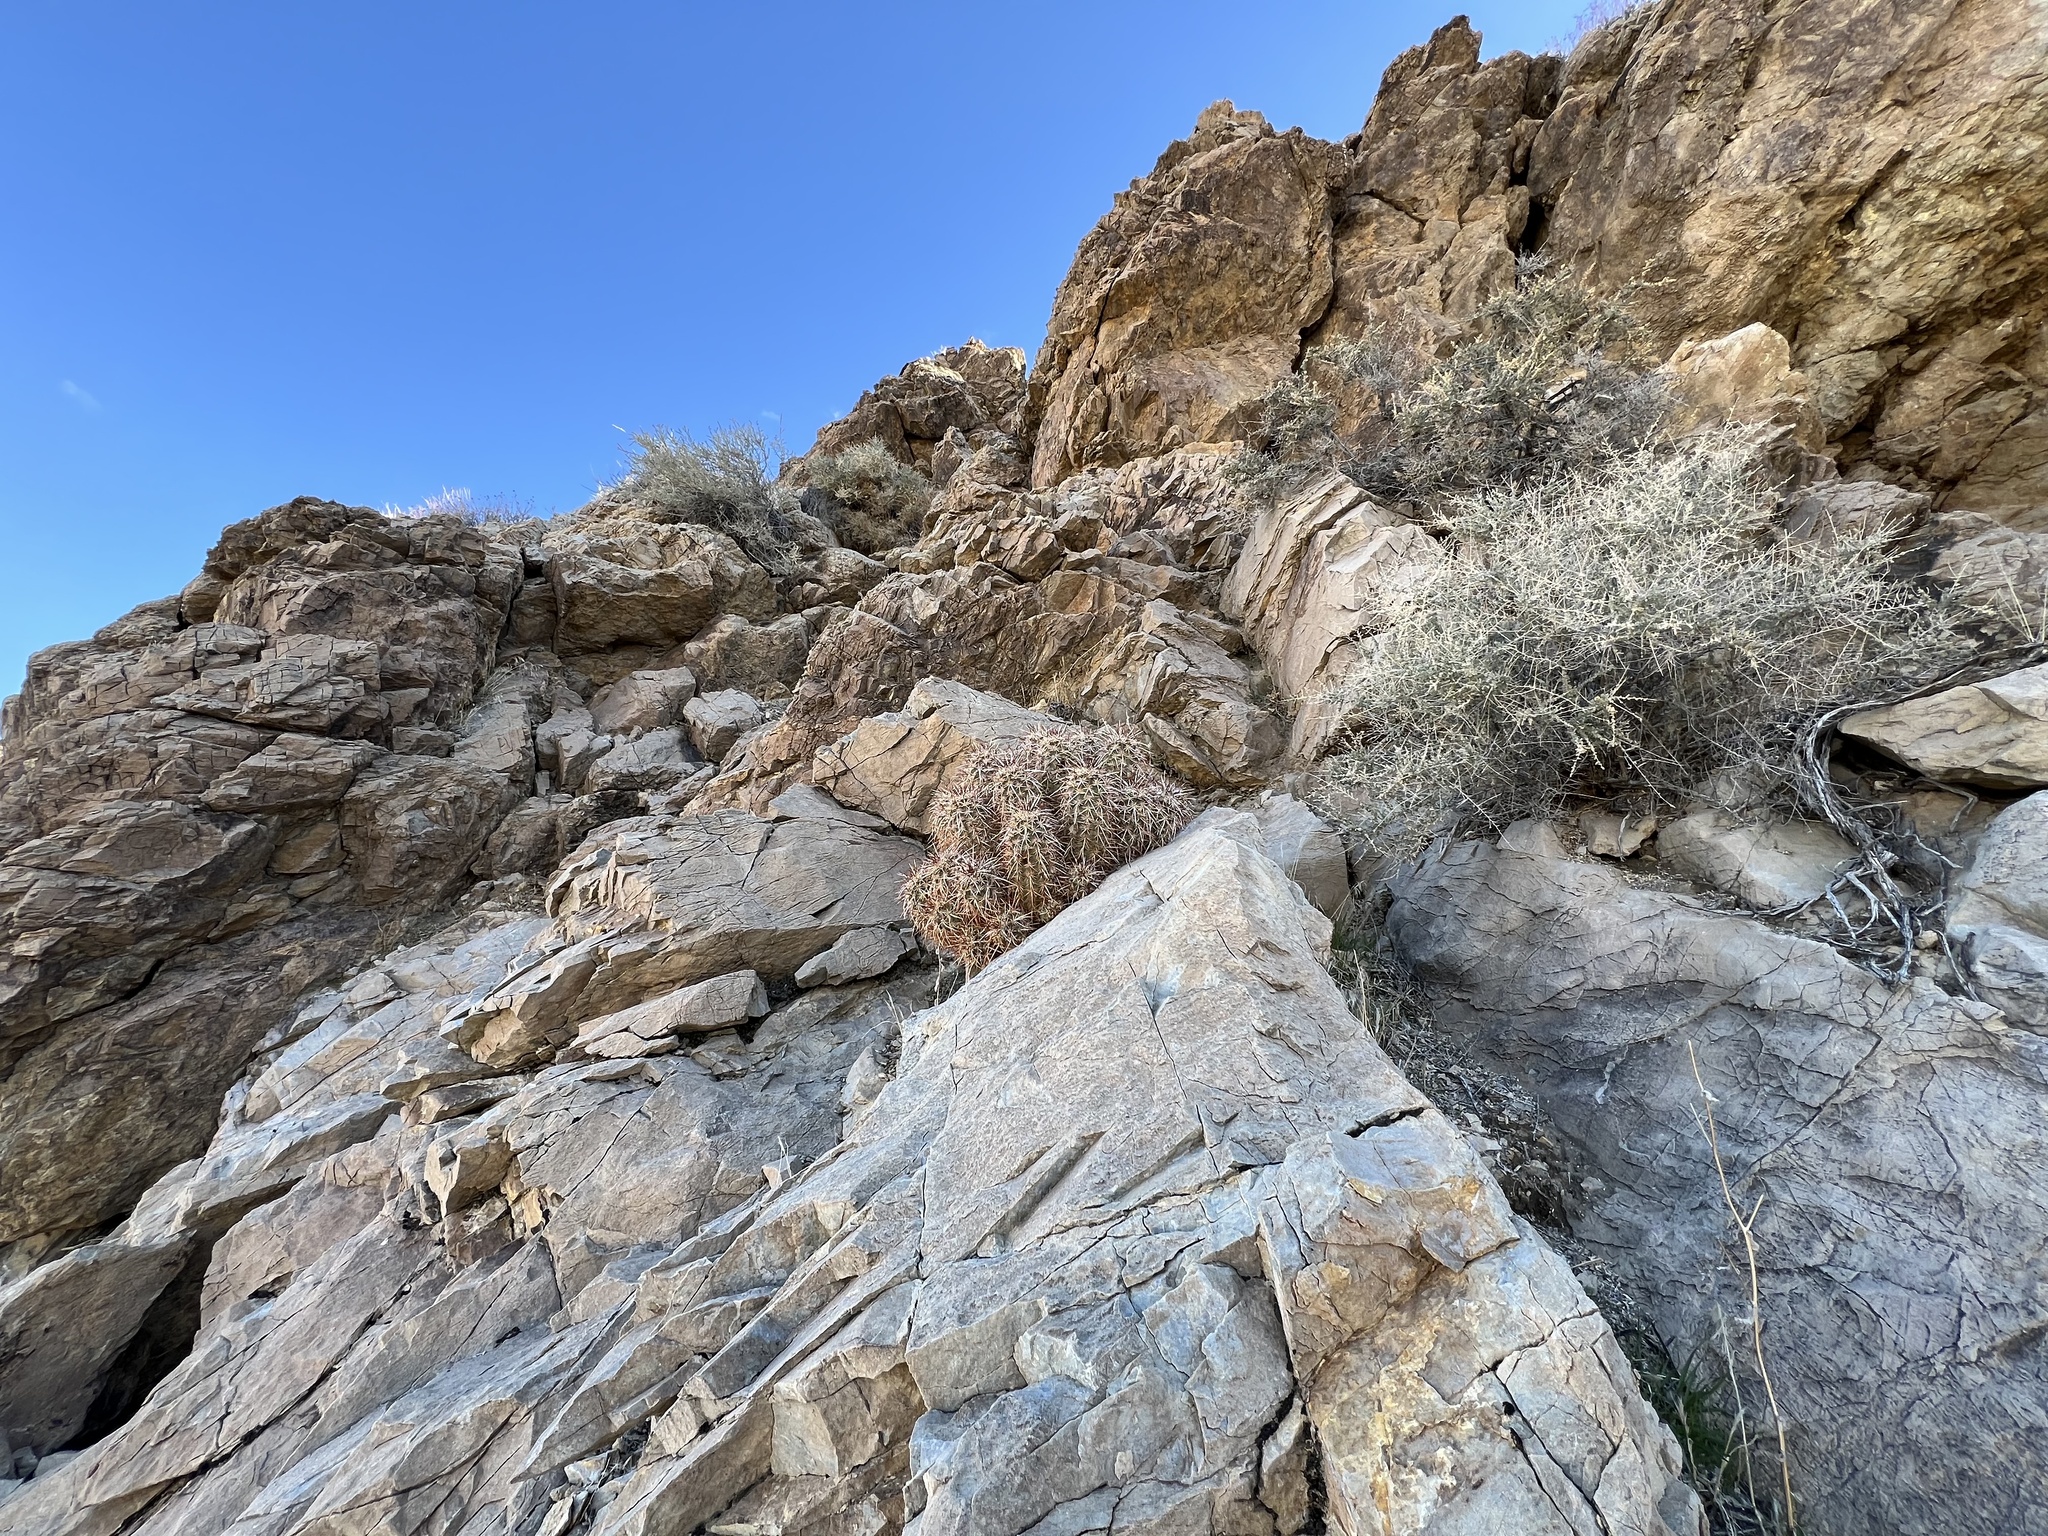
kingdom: Plantae
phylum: Tracheophyta
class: Magnoliopsida
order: Caryophyllales
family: Cactaceae
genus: Echinocereus
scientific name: Echinocereus engelmannii
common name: Engelmann's hedgehog cactus
